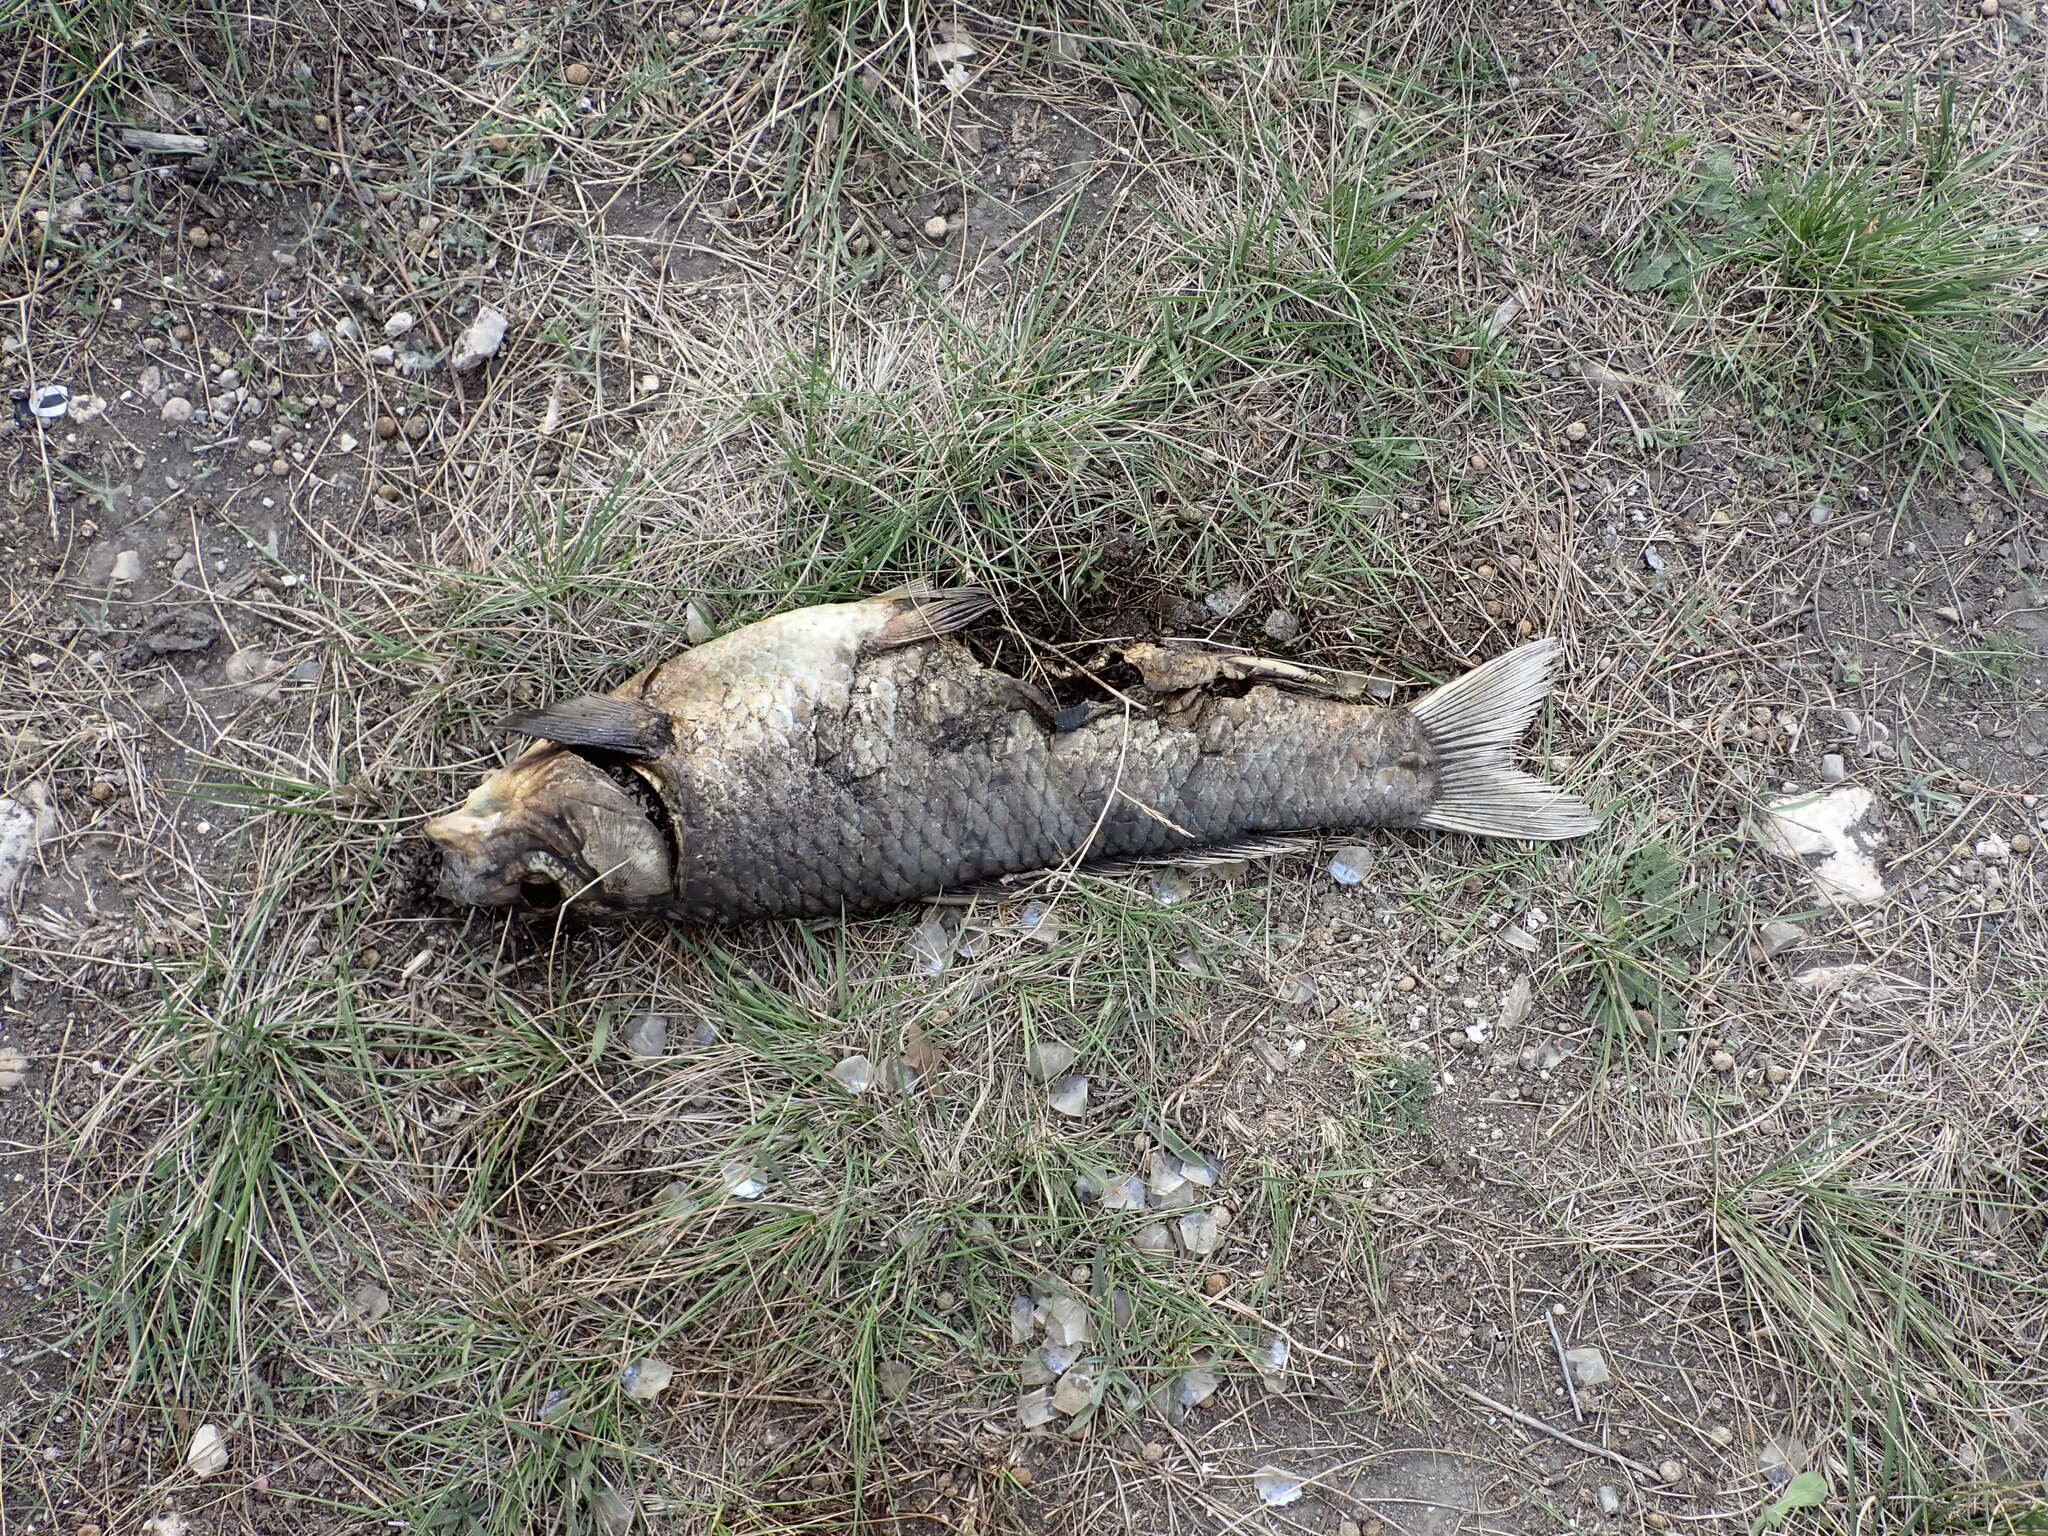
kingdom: Animalia
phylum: Chordata
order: Cypriniformes
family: Cyprinidae
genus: Cyprinus
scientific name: Cyprinus carpio
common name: Common carp
